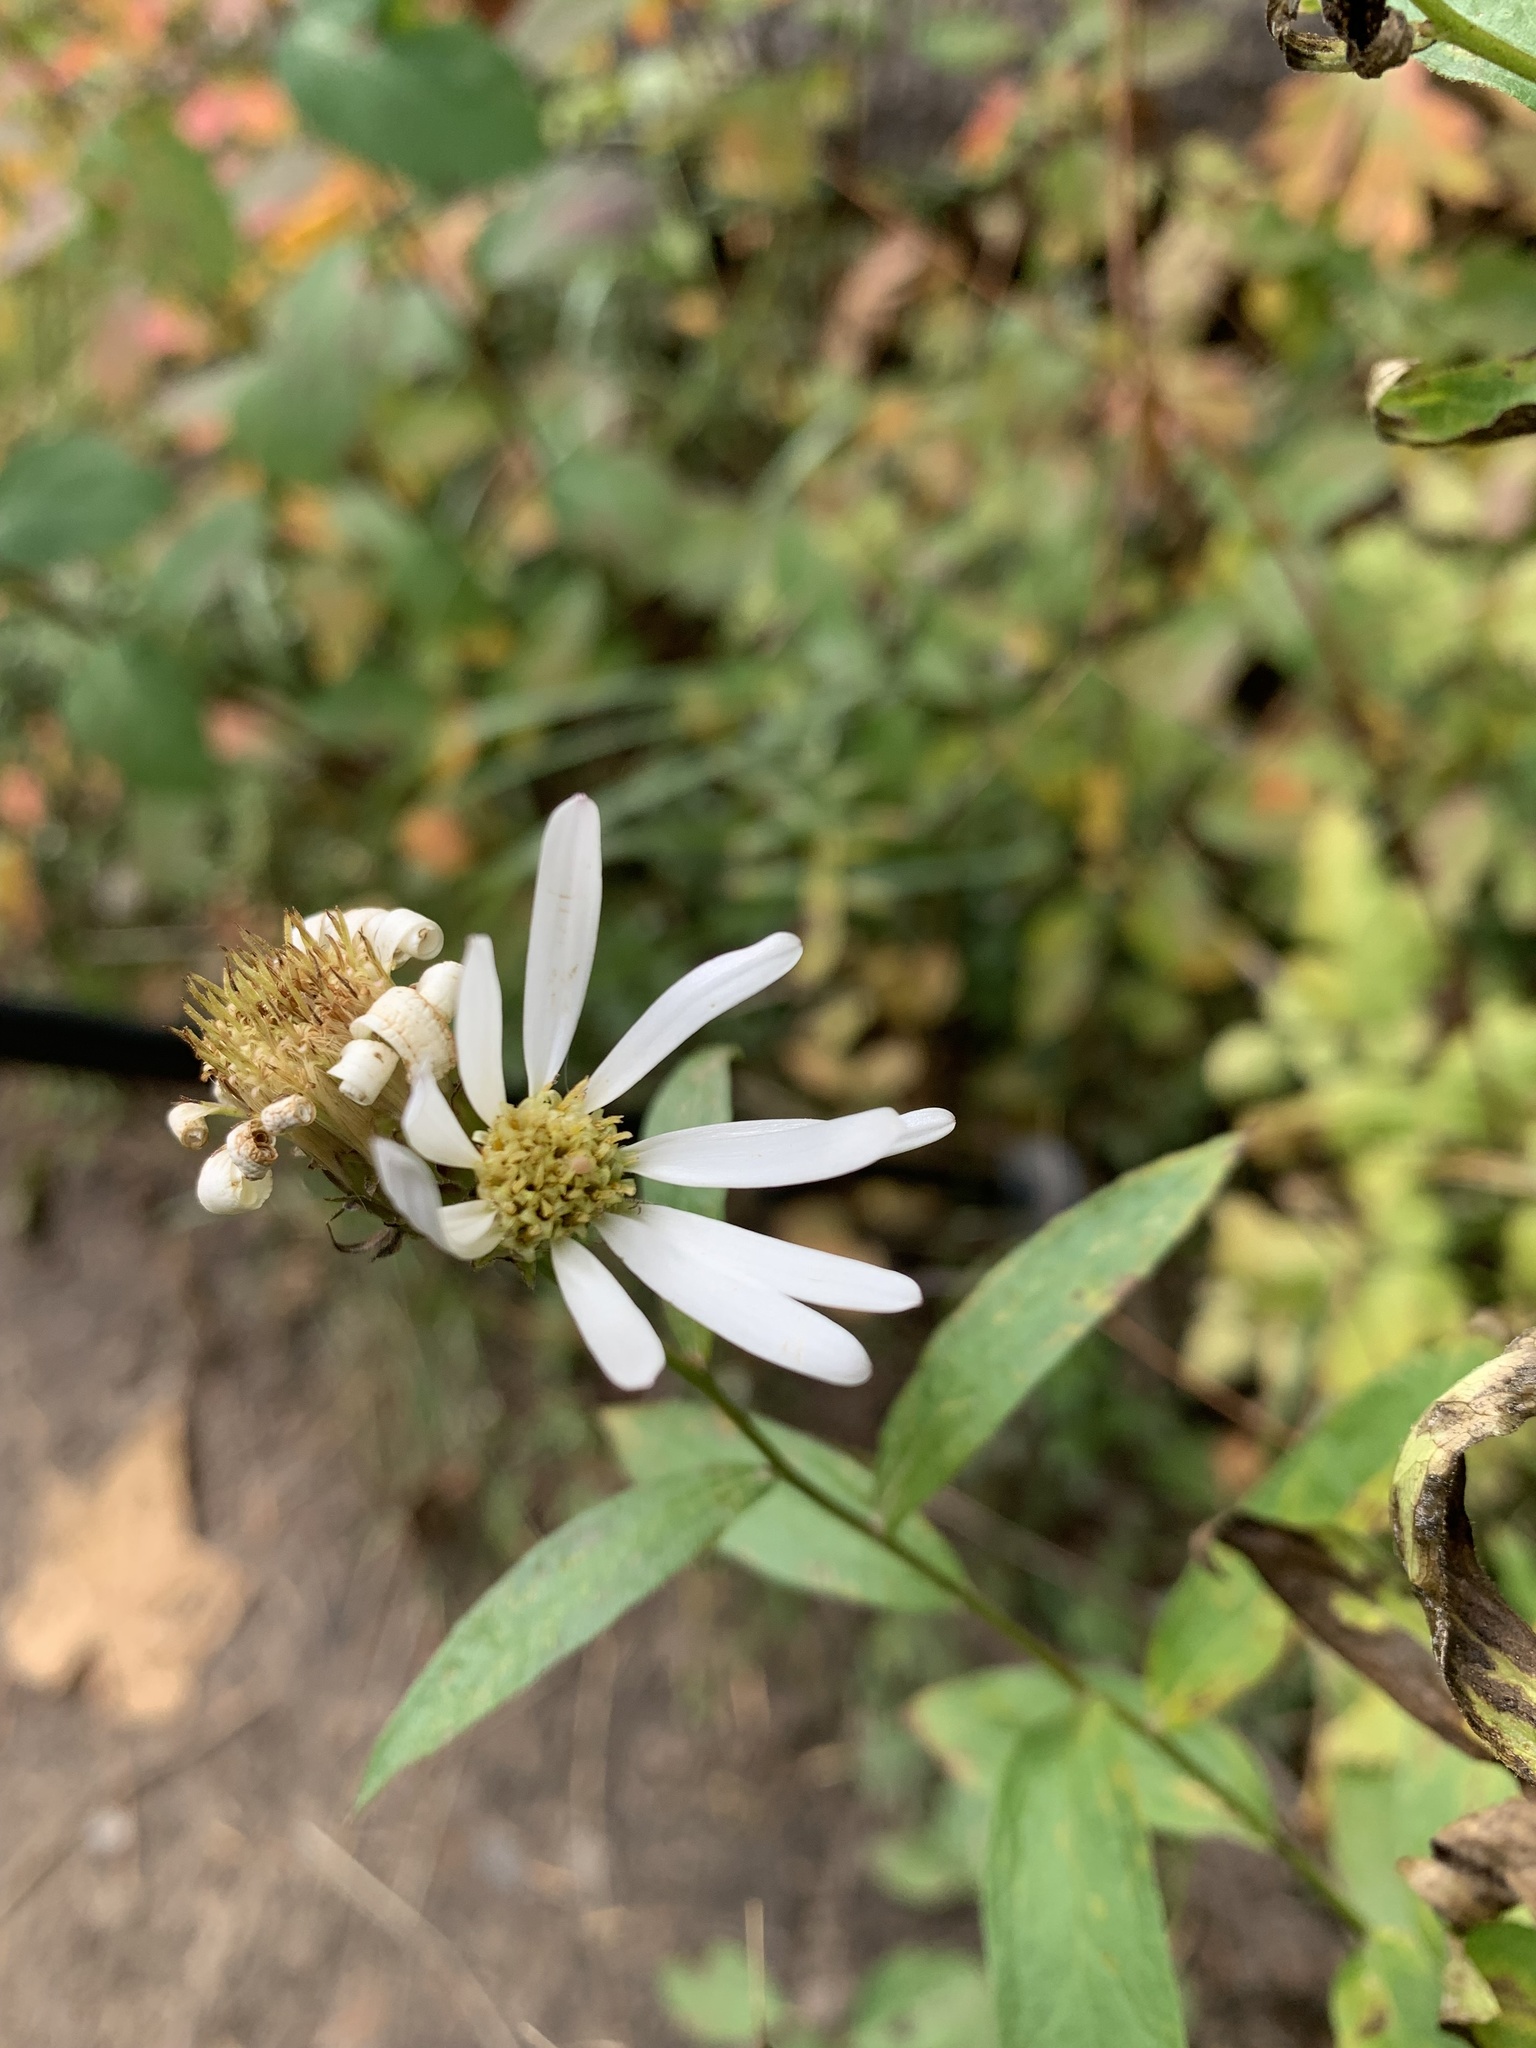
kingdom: Plantae
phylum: Tracheophyta
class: Magnoliopsida
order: Asterales
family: Asteraceae
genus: Eucephalus
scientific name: Eucephalus engelmannii
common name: Engelmann's aster
